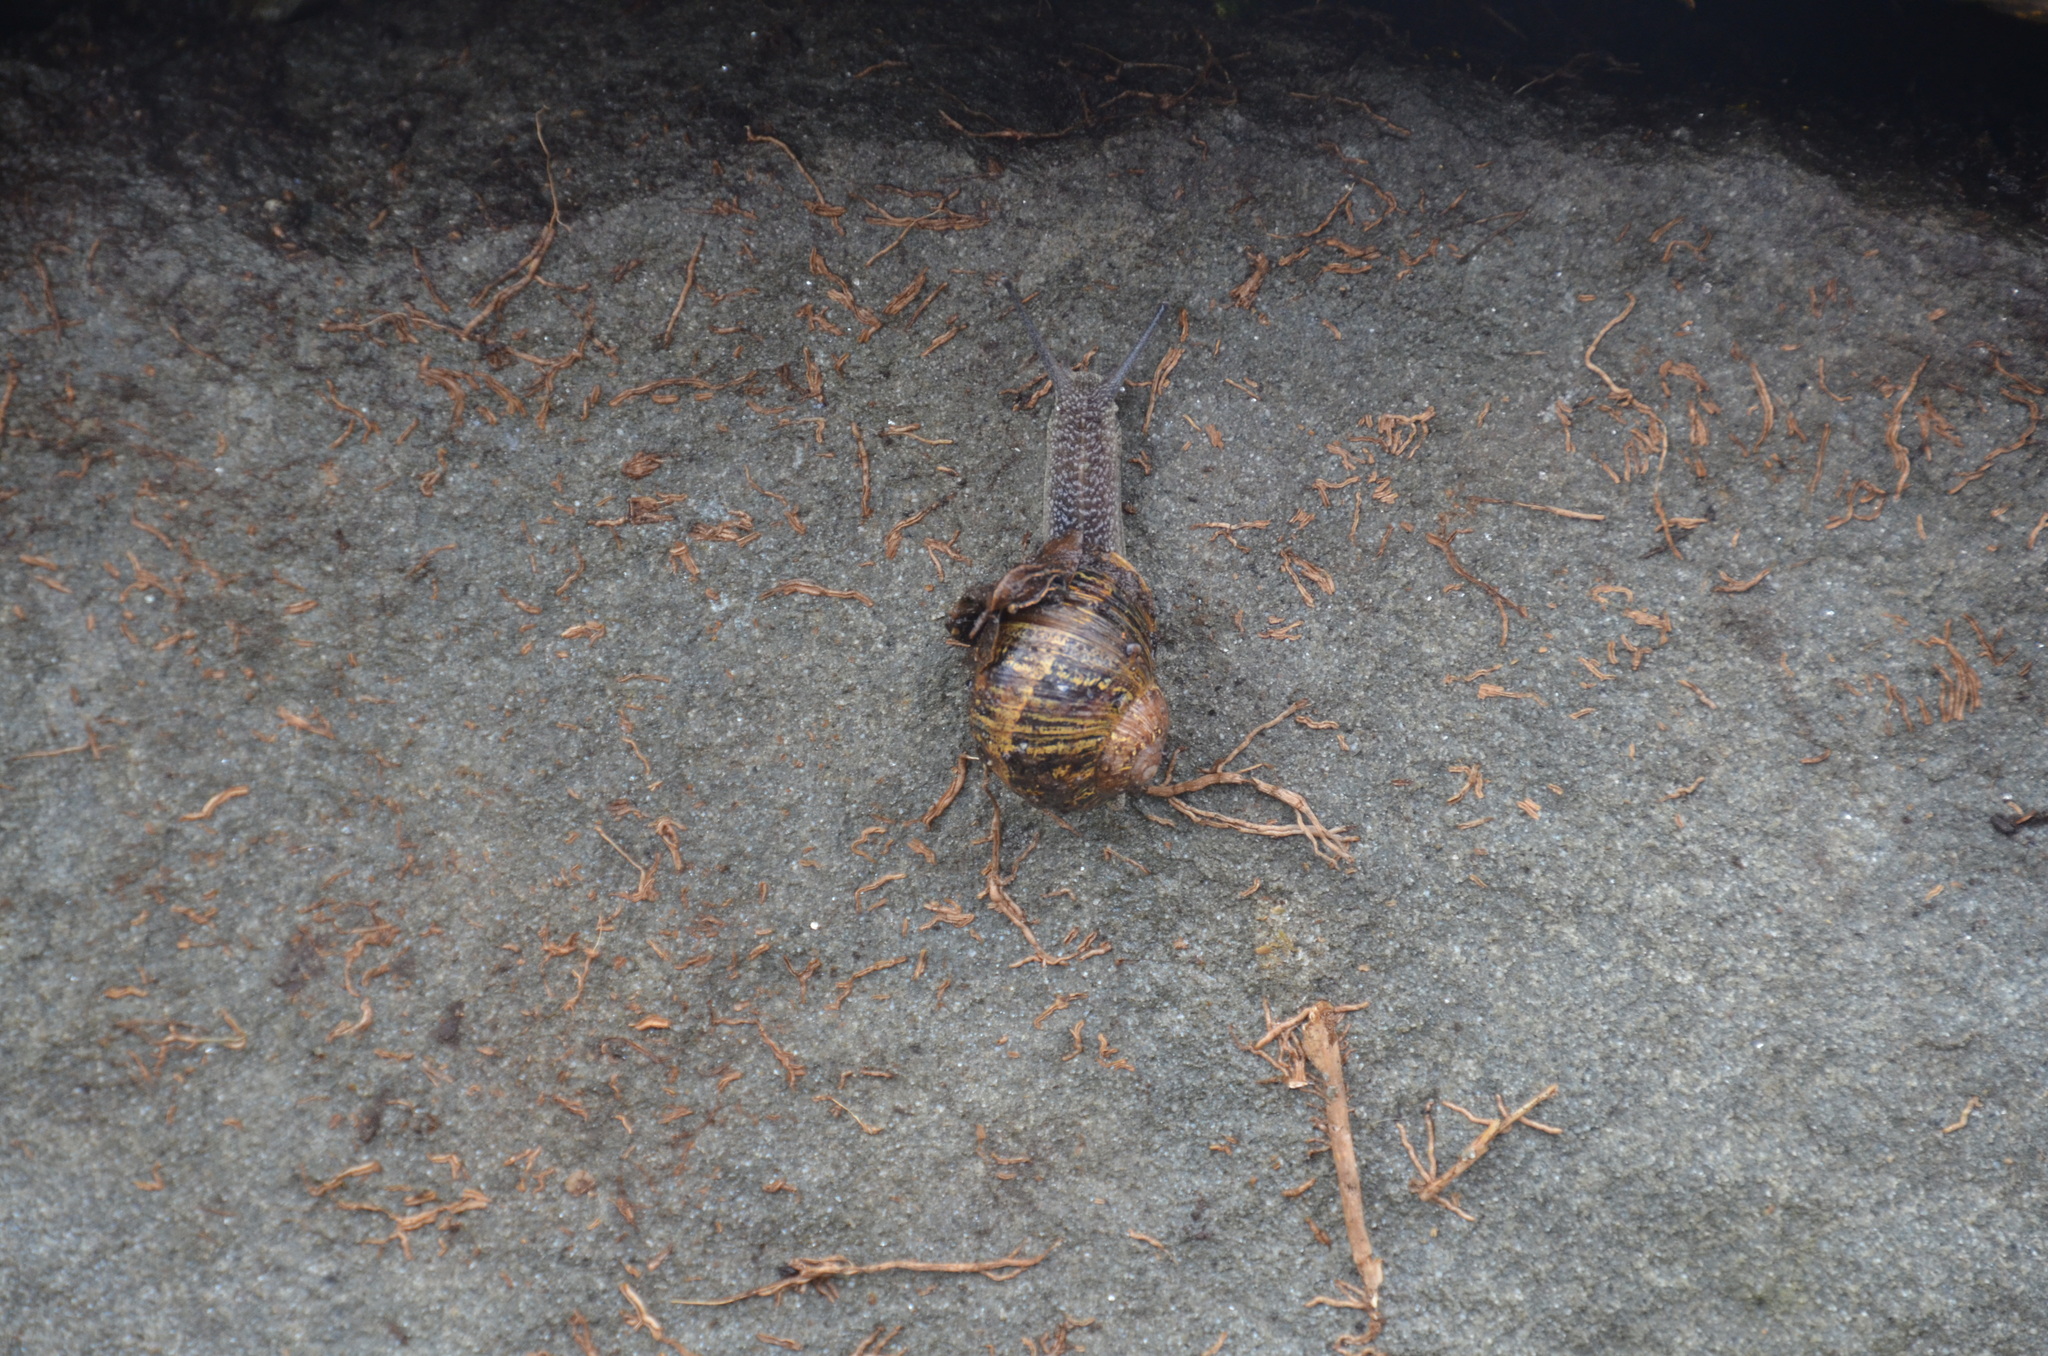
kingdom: Animalia
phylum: Mollusca
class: Gastropoda
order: Stylommatophora
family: Helicidae
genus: Cornu
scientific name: Cornu aspersum
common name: Brown garden snail
